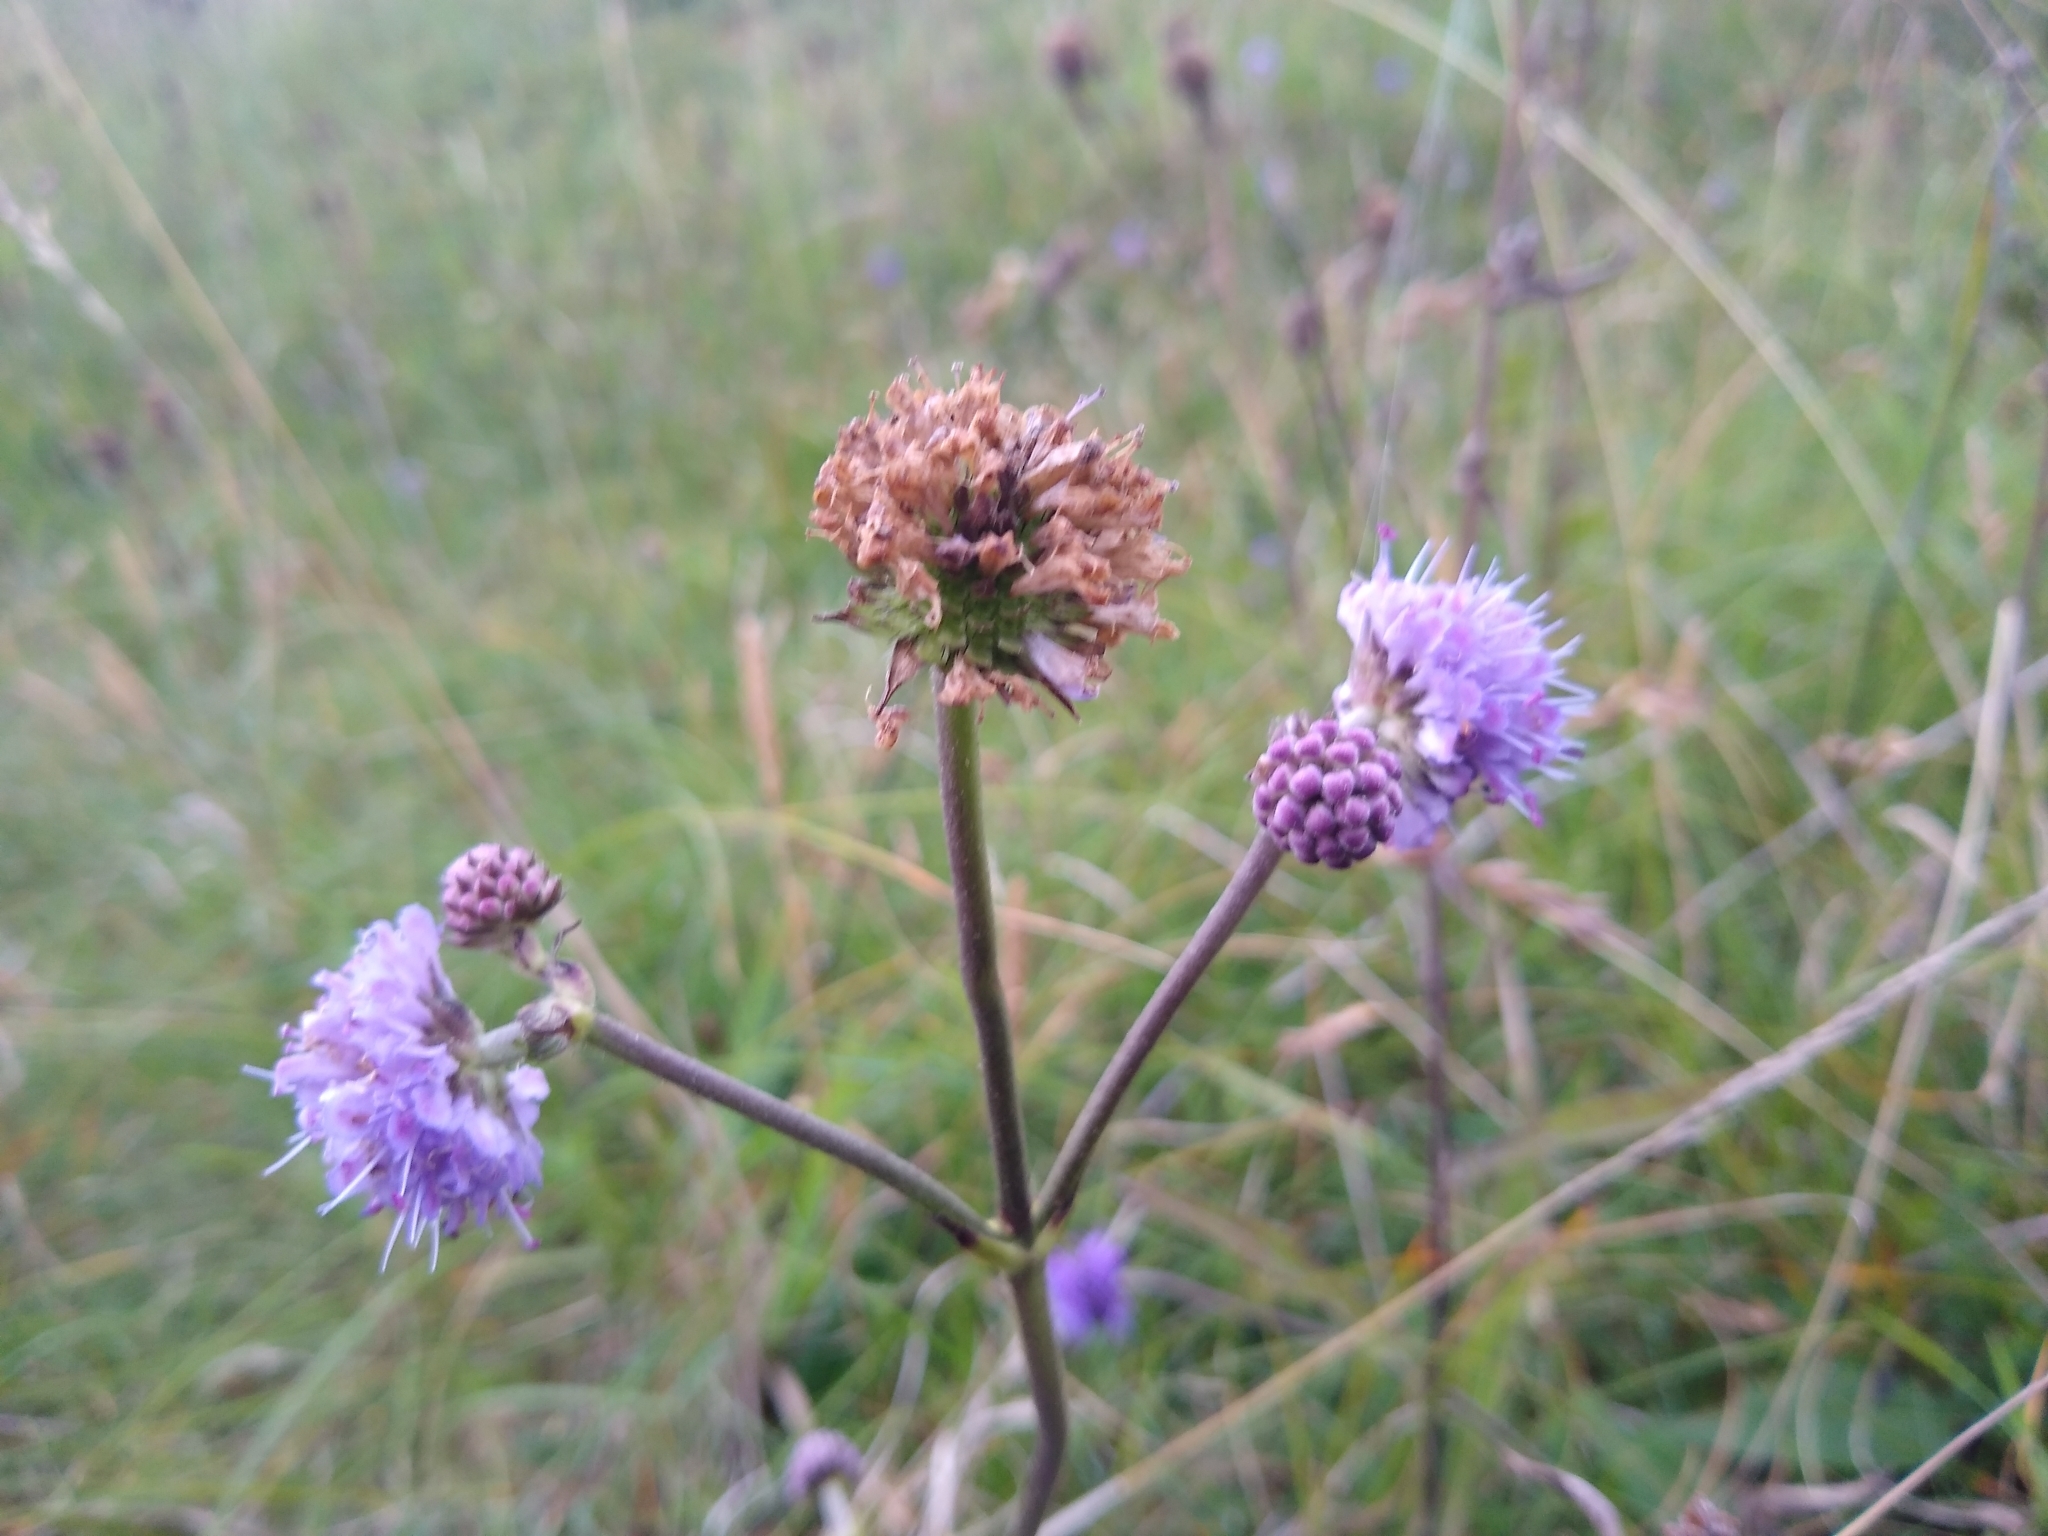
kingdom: Plantae
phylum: Tracheophyta
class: Magnoliopsida
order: Dipsacales
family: Caprifoliaceae
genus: Succisa
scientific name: Succisa pratensis
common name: Devil's-bit
